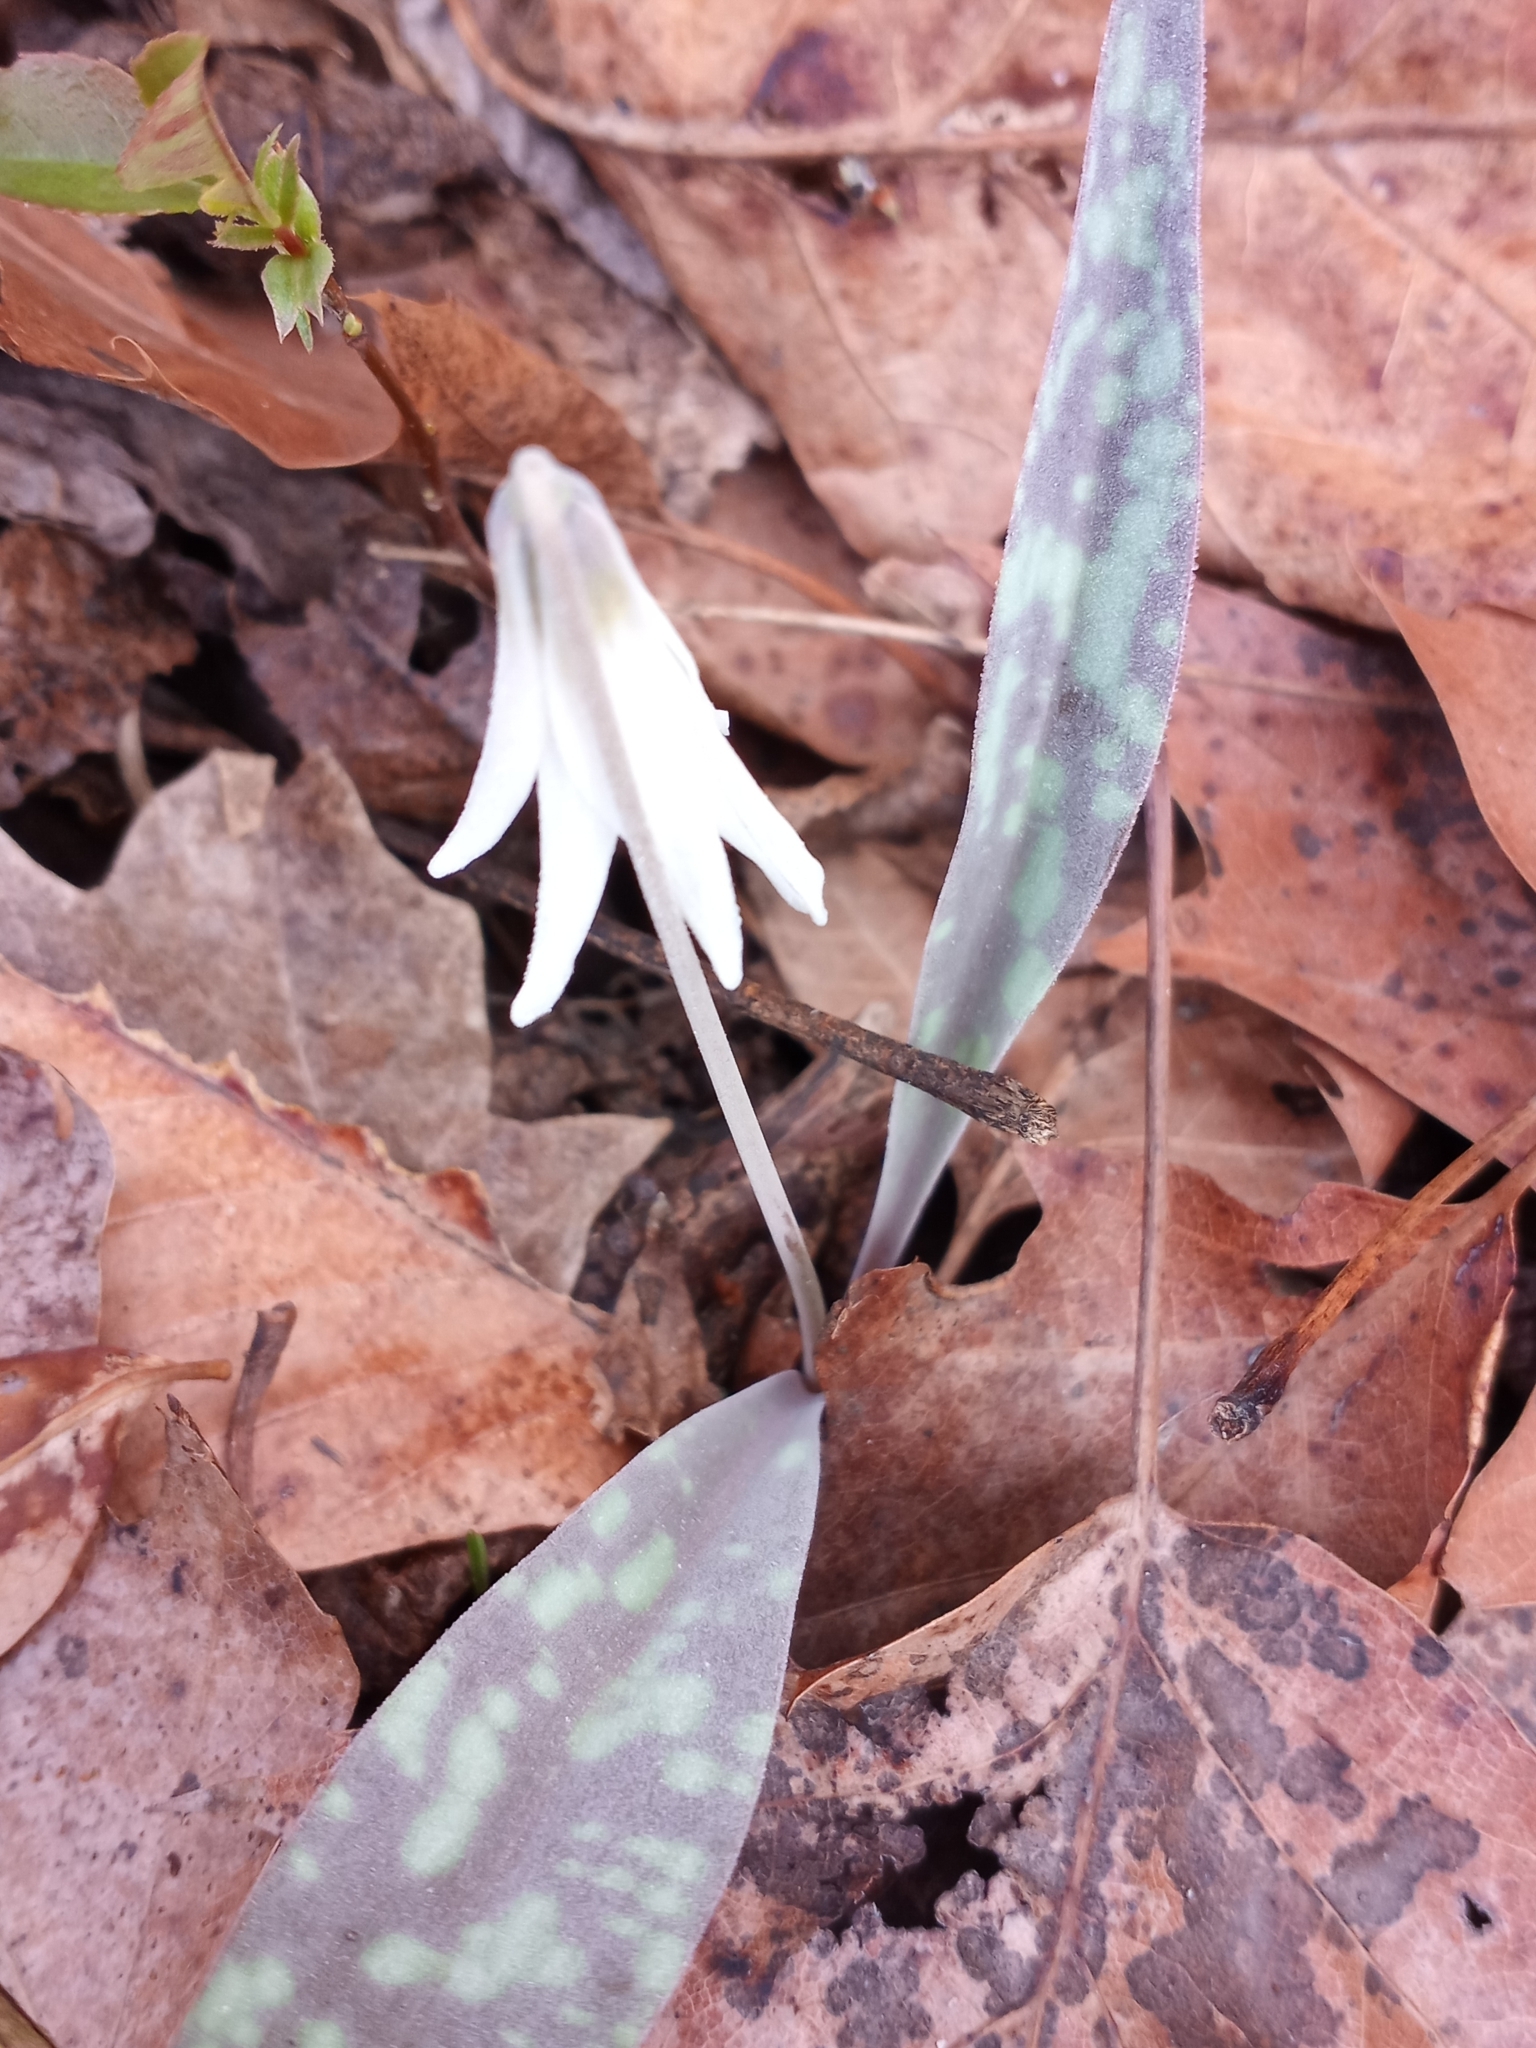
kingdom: Plantae
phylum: Tracheophyta
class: Liliopsida
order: Liliales
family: Liliaceae
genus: Erythronium
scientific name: Erythronium albidum
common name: White trout-lily
